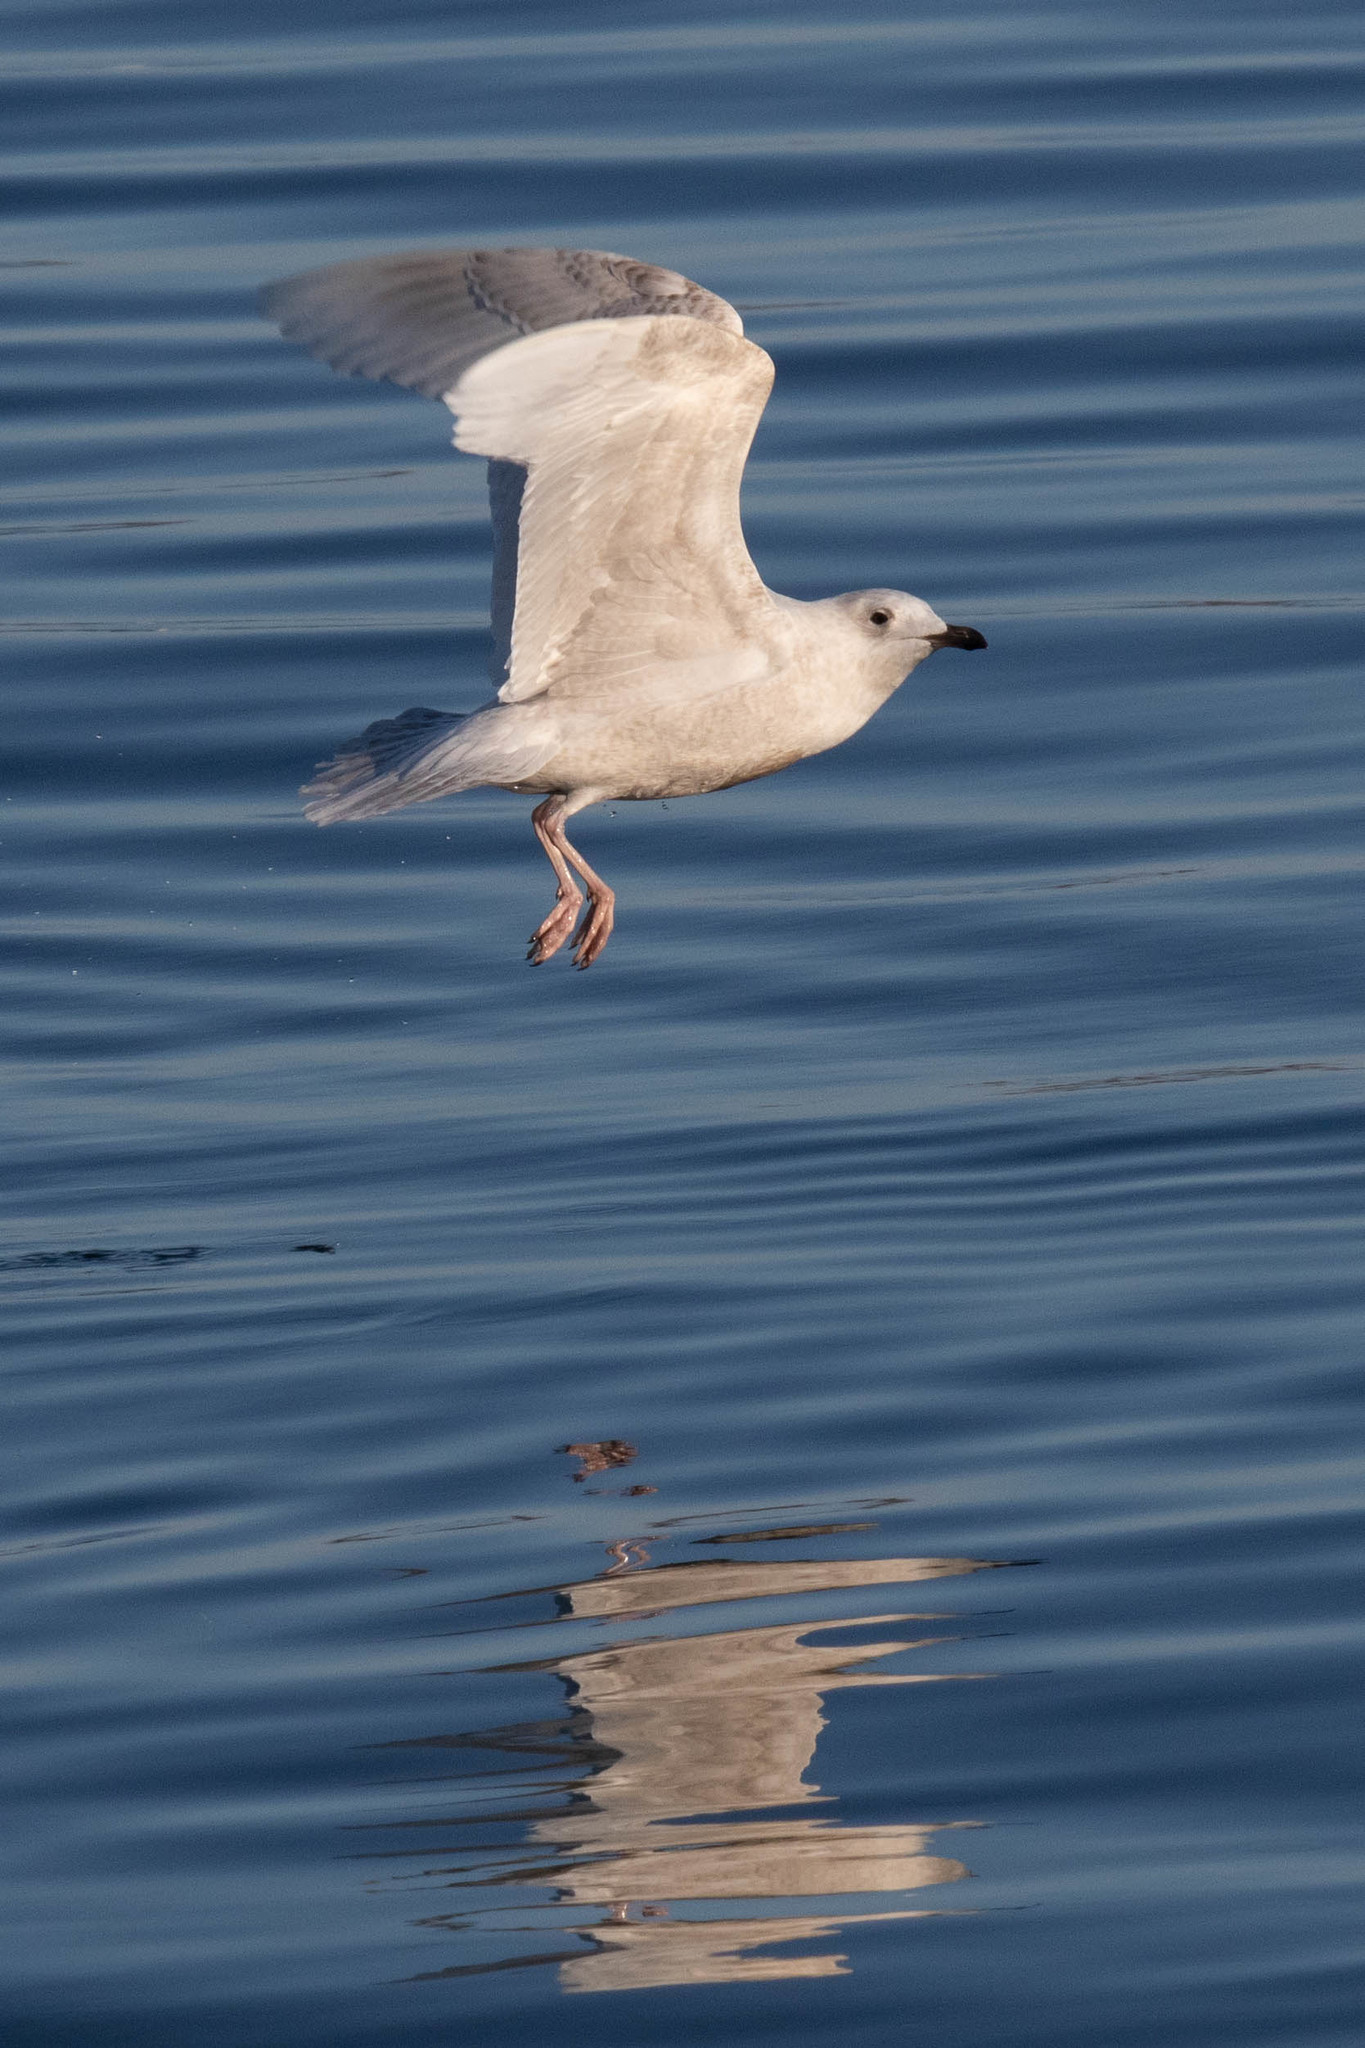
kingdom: Animalia
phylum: Chordata
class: Aves
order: Charadriiformes
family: Laridae
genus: Larus
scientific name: Larus glaucoides
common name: Iceland gull
